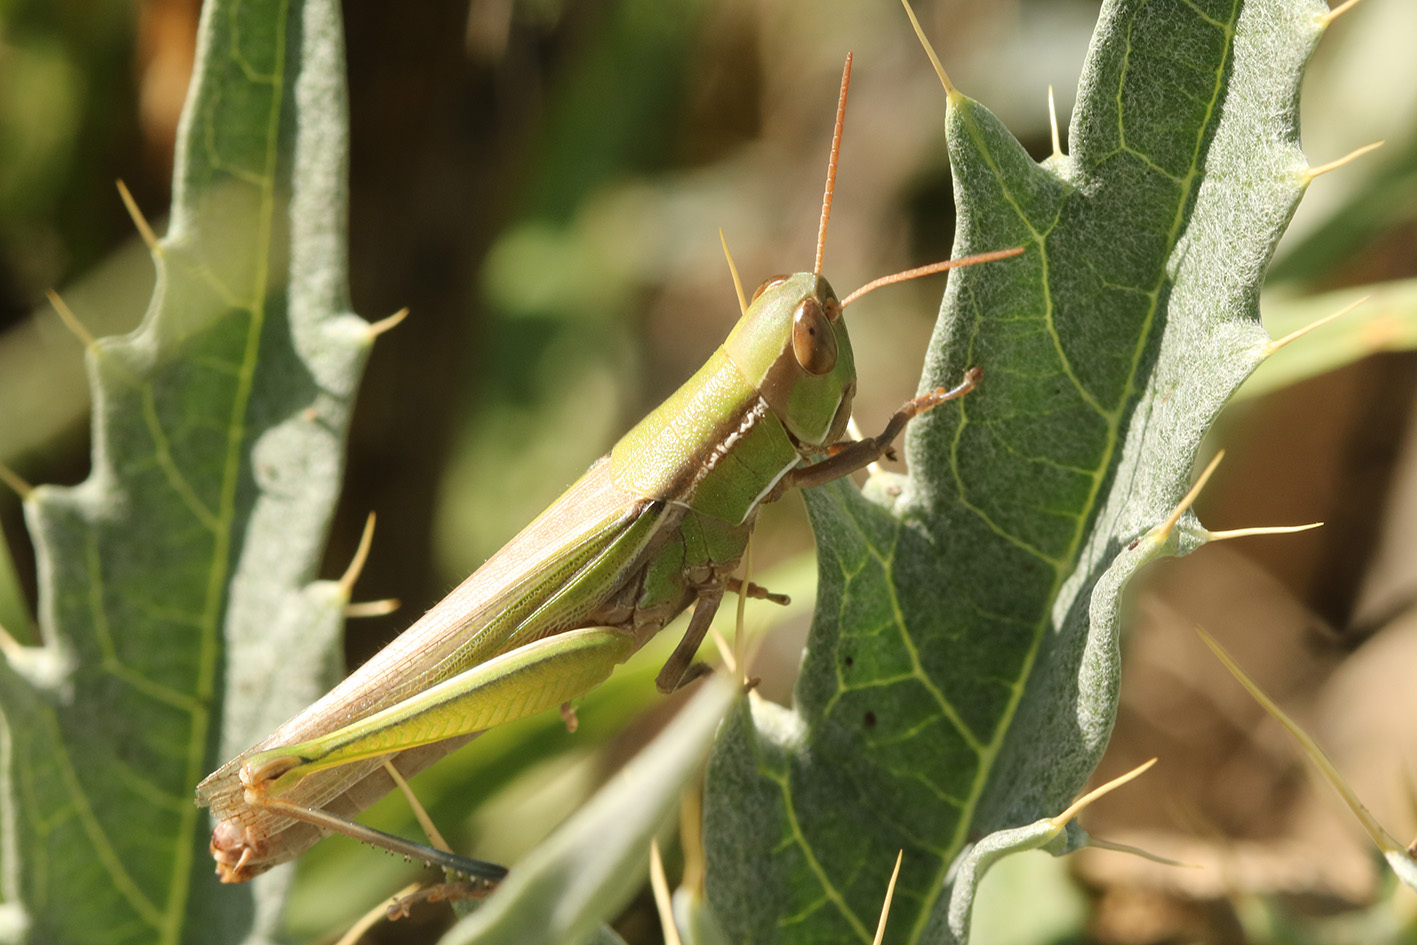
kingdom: Animalia
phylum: Arthropoda
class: Insecta
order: Orthoptera
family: Acrididae
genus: Aleuas
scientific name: Aleuas lineatus
